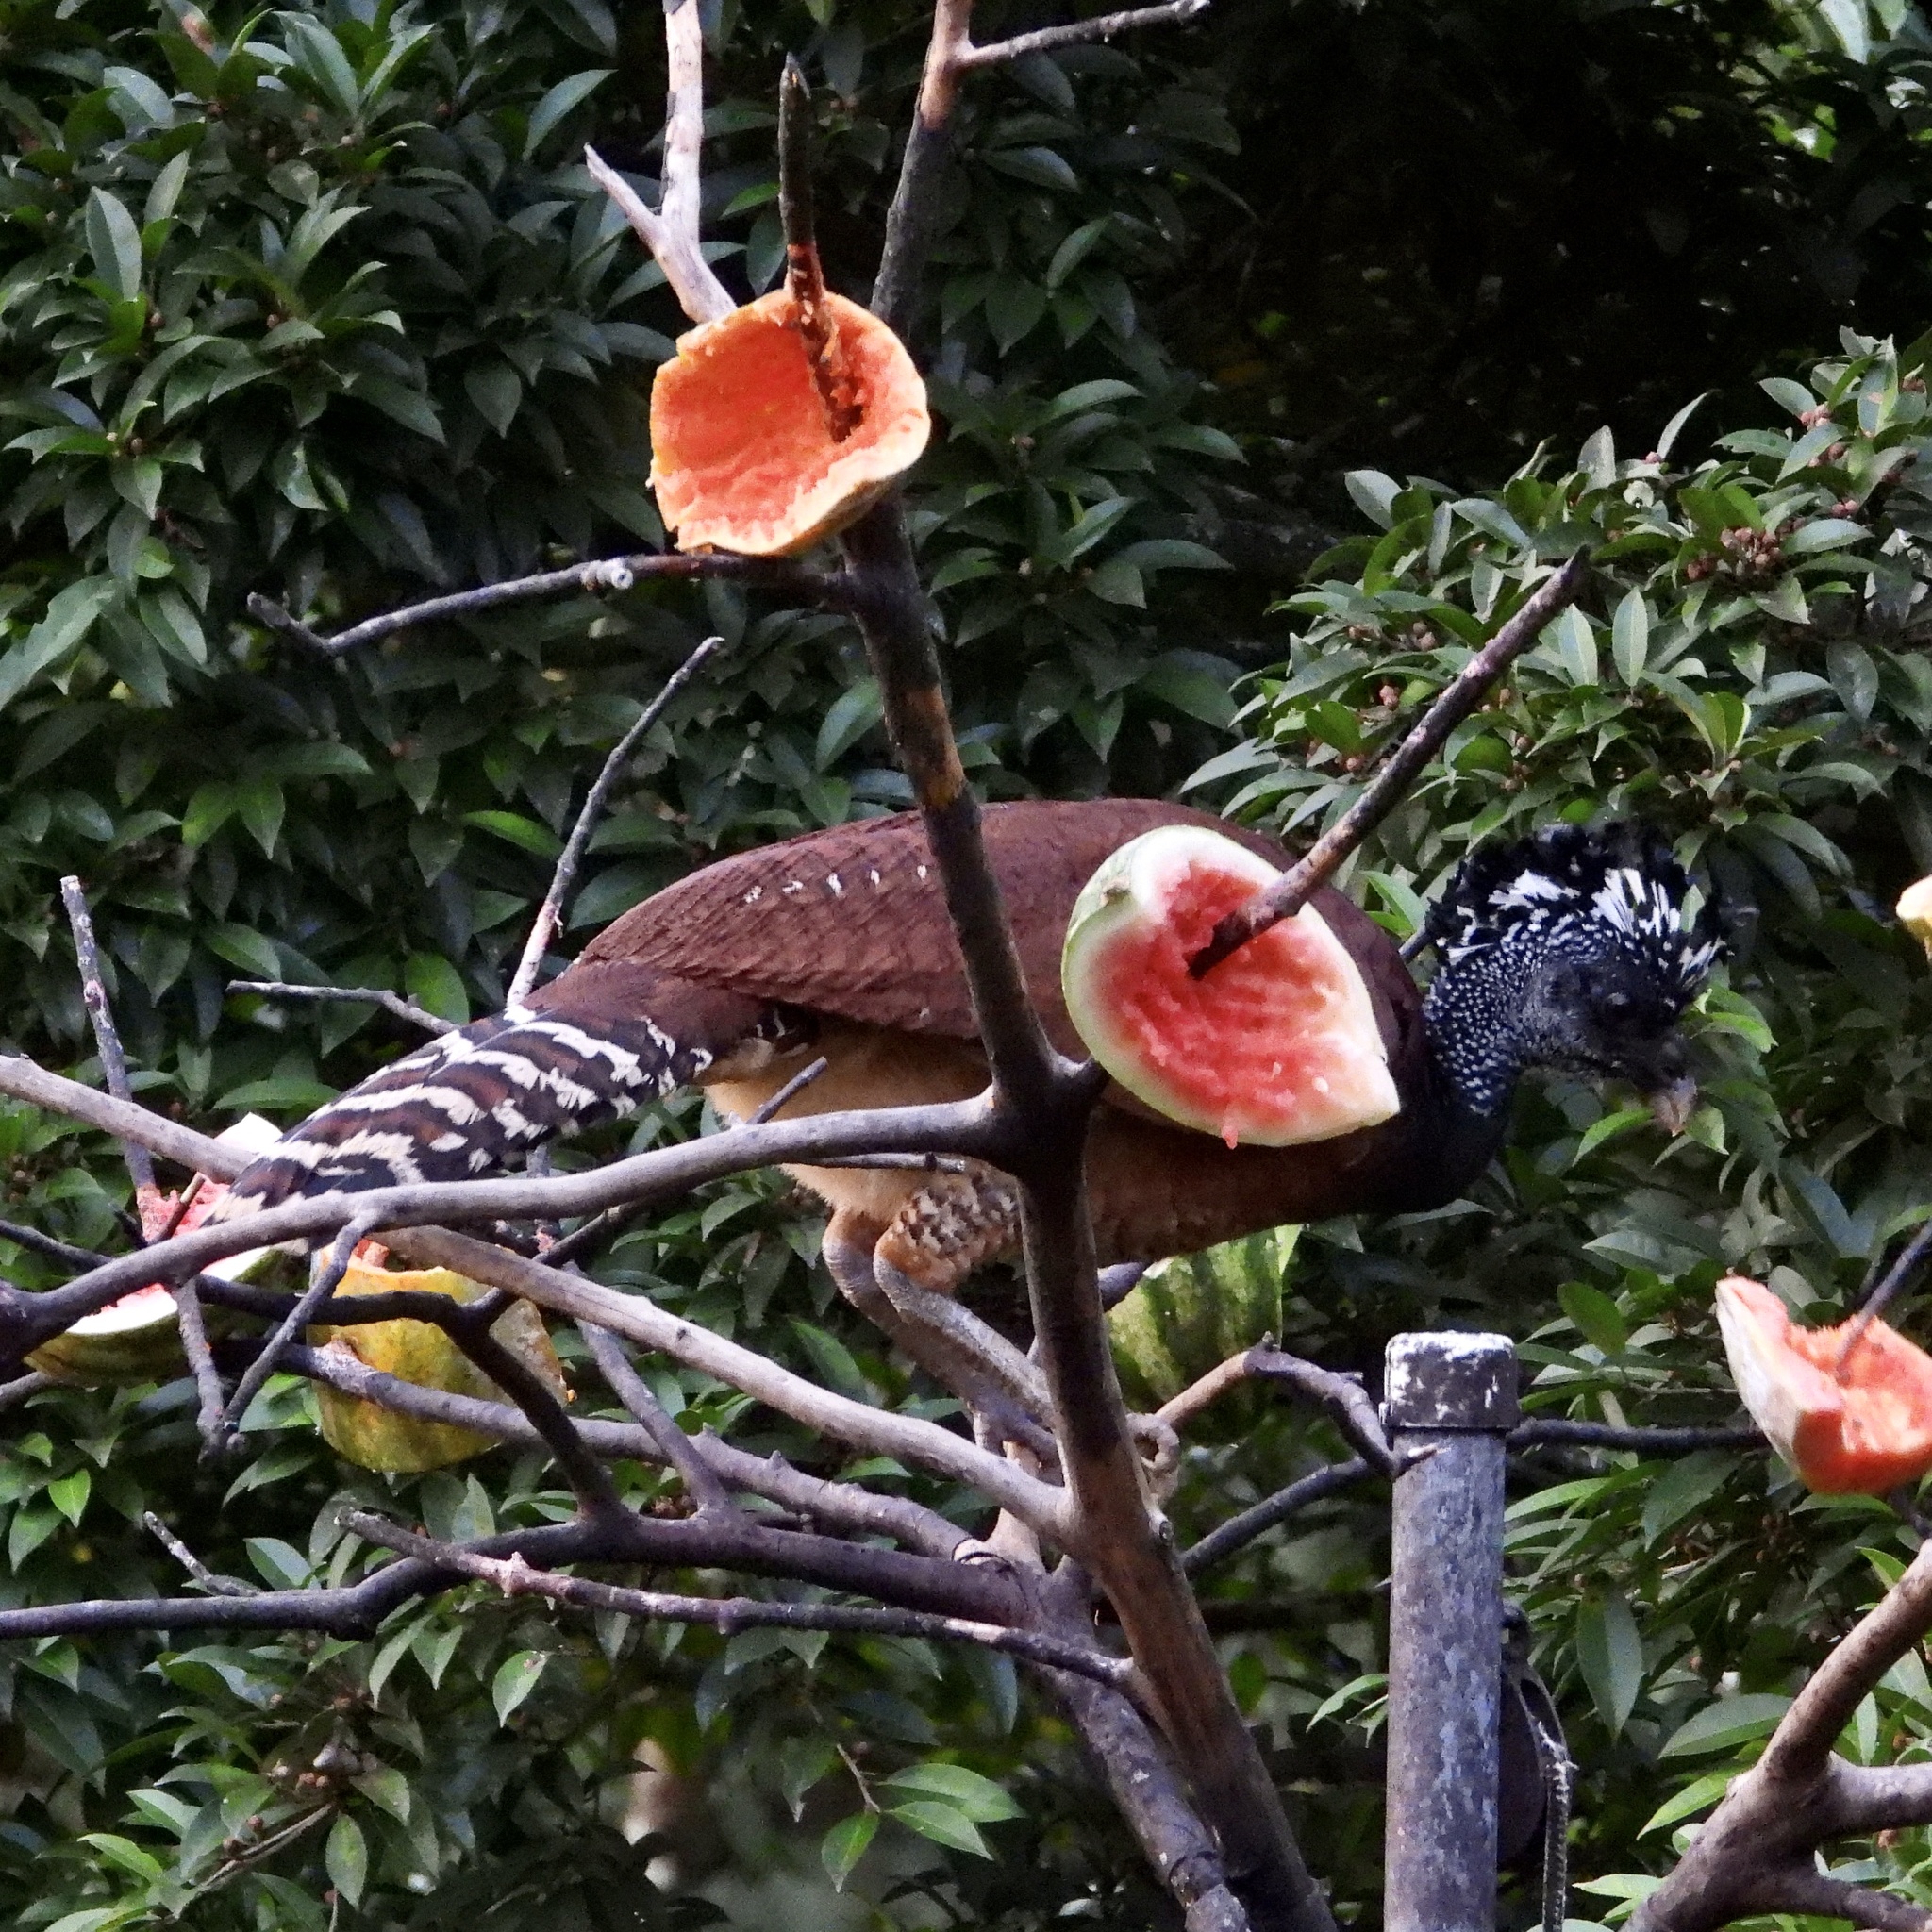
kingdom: Animalia
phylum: Chordata
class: Aves
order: Galliformes
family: Cracidae
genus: Crax
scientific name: Crax rubra
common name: Great curassow
